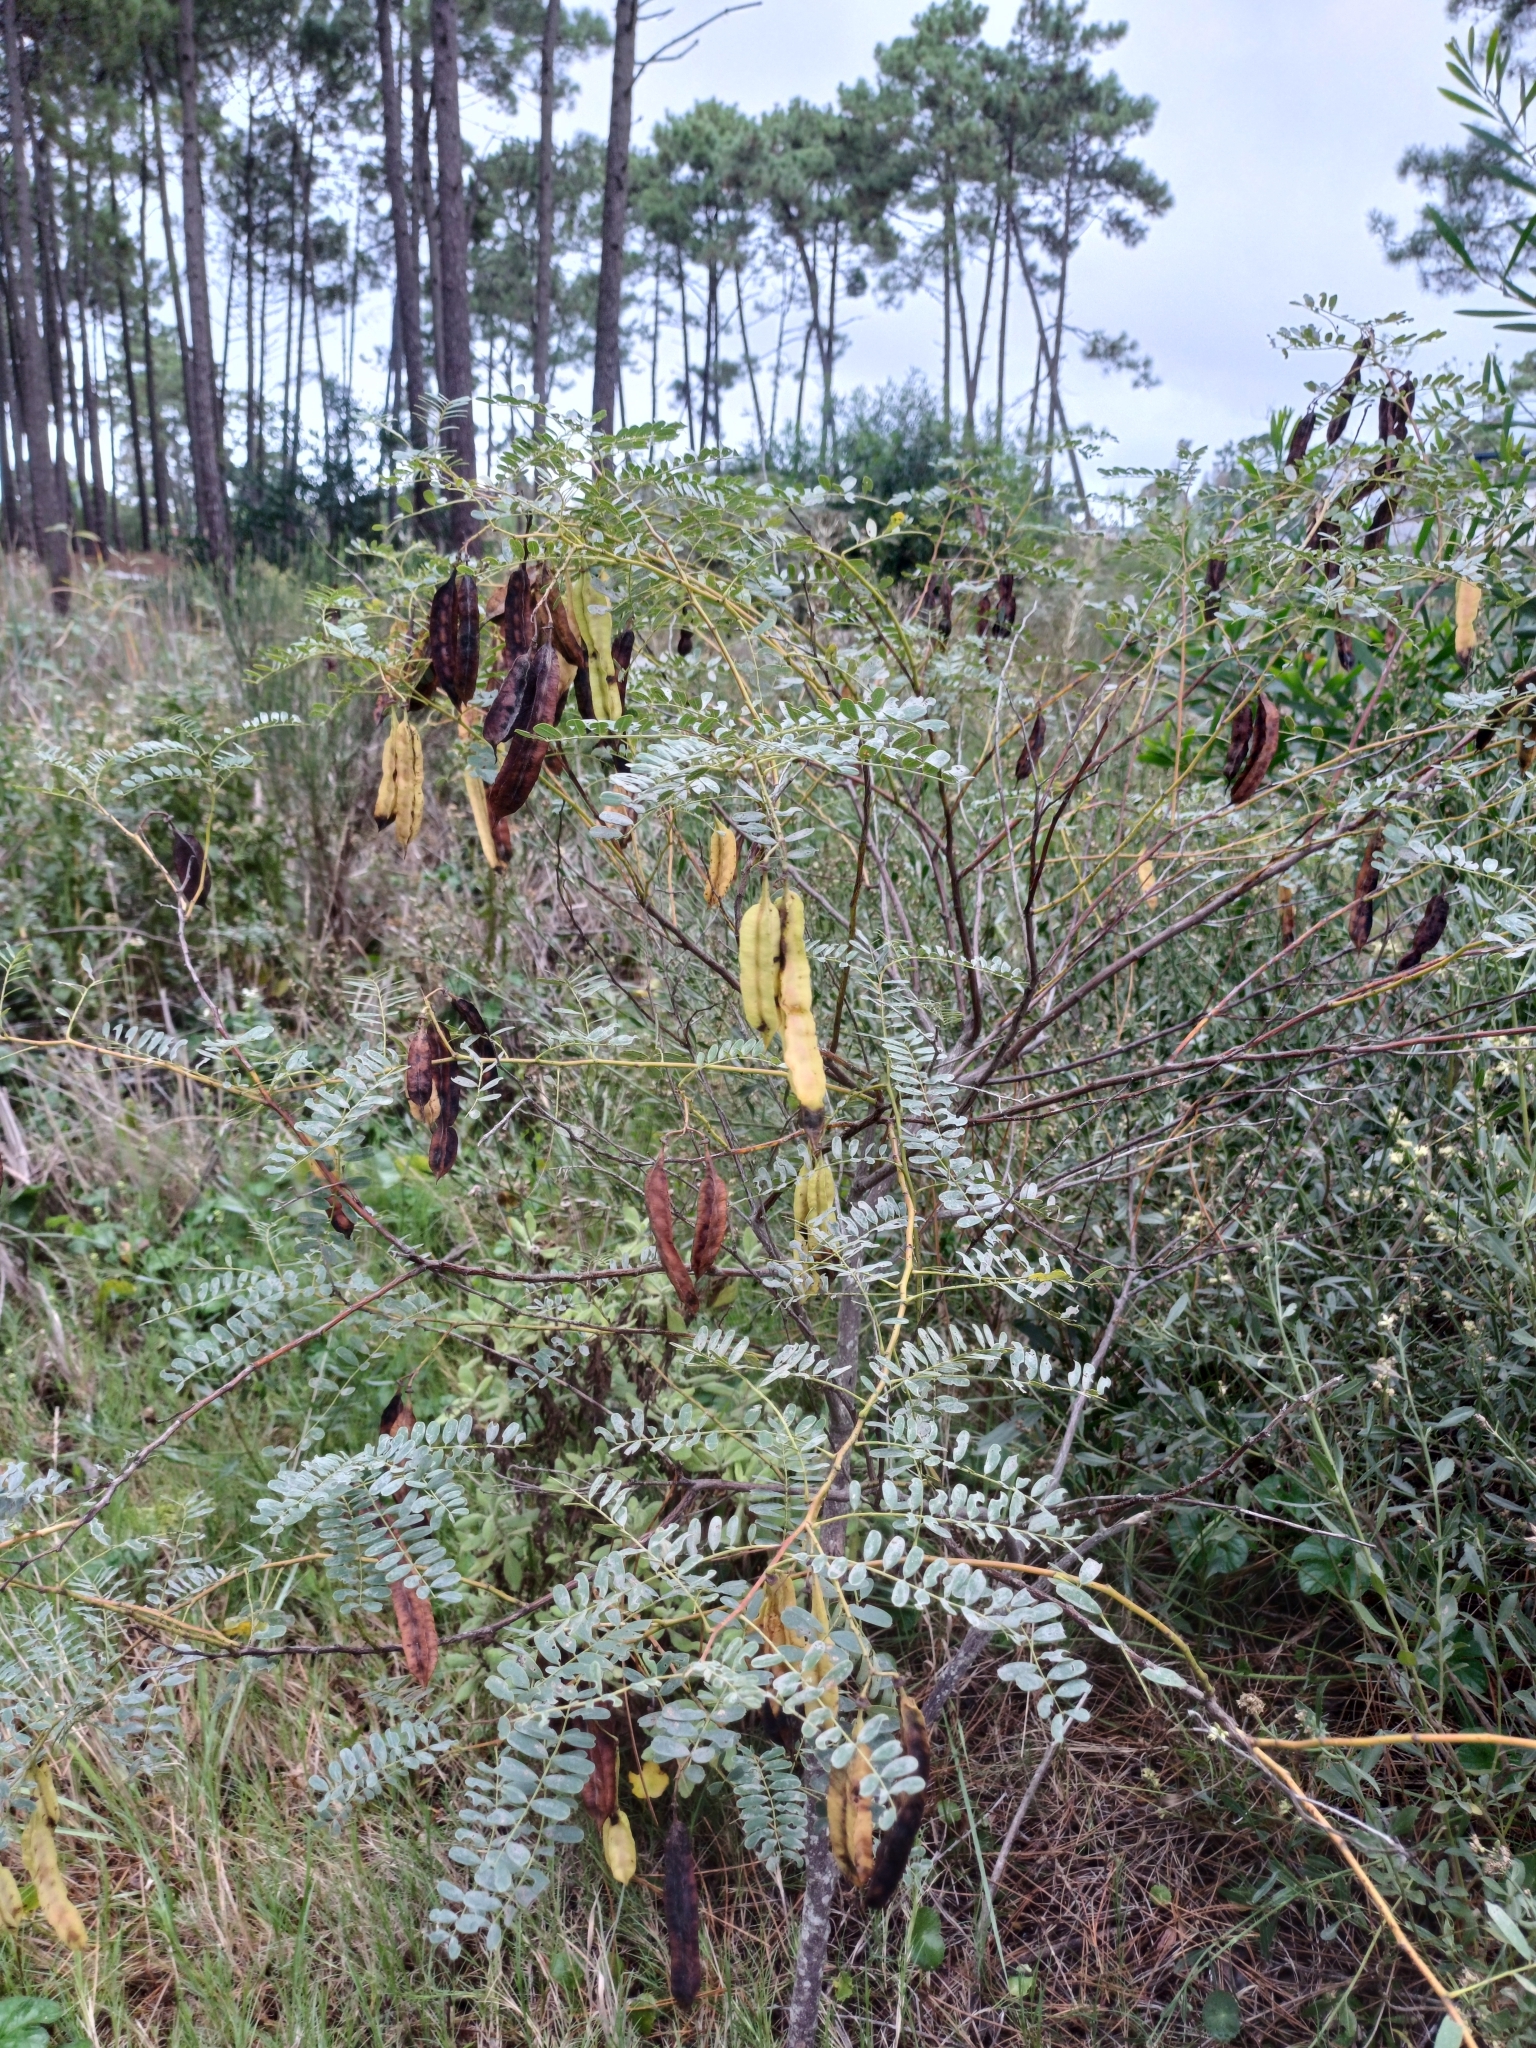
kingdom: Plantae
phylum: Tracheophyta
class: Magnoliopsida
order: Fabales
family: Fabaceae
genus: Sesbania
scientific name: Sesbania punicea
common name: Rattlebox
